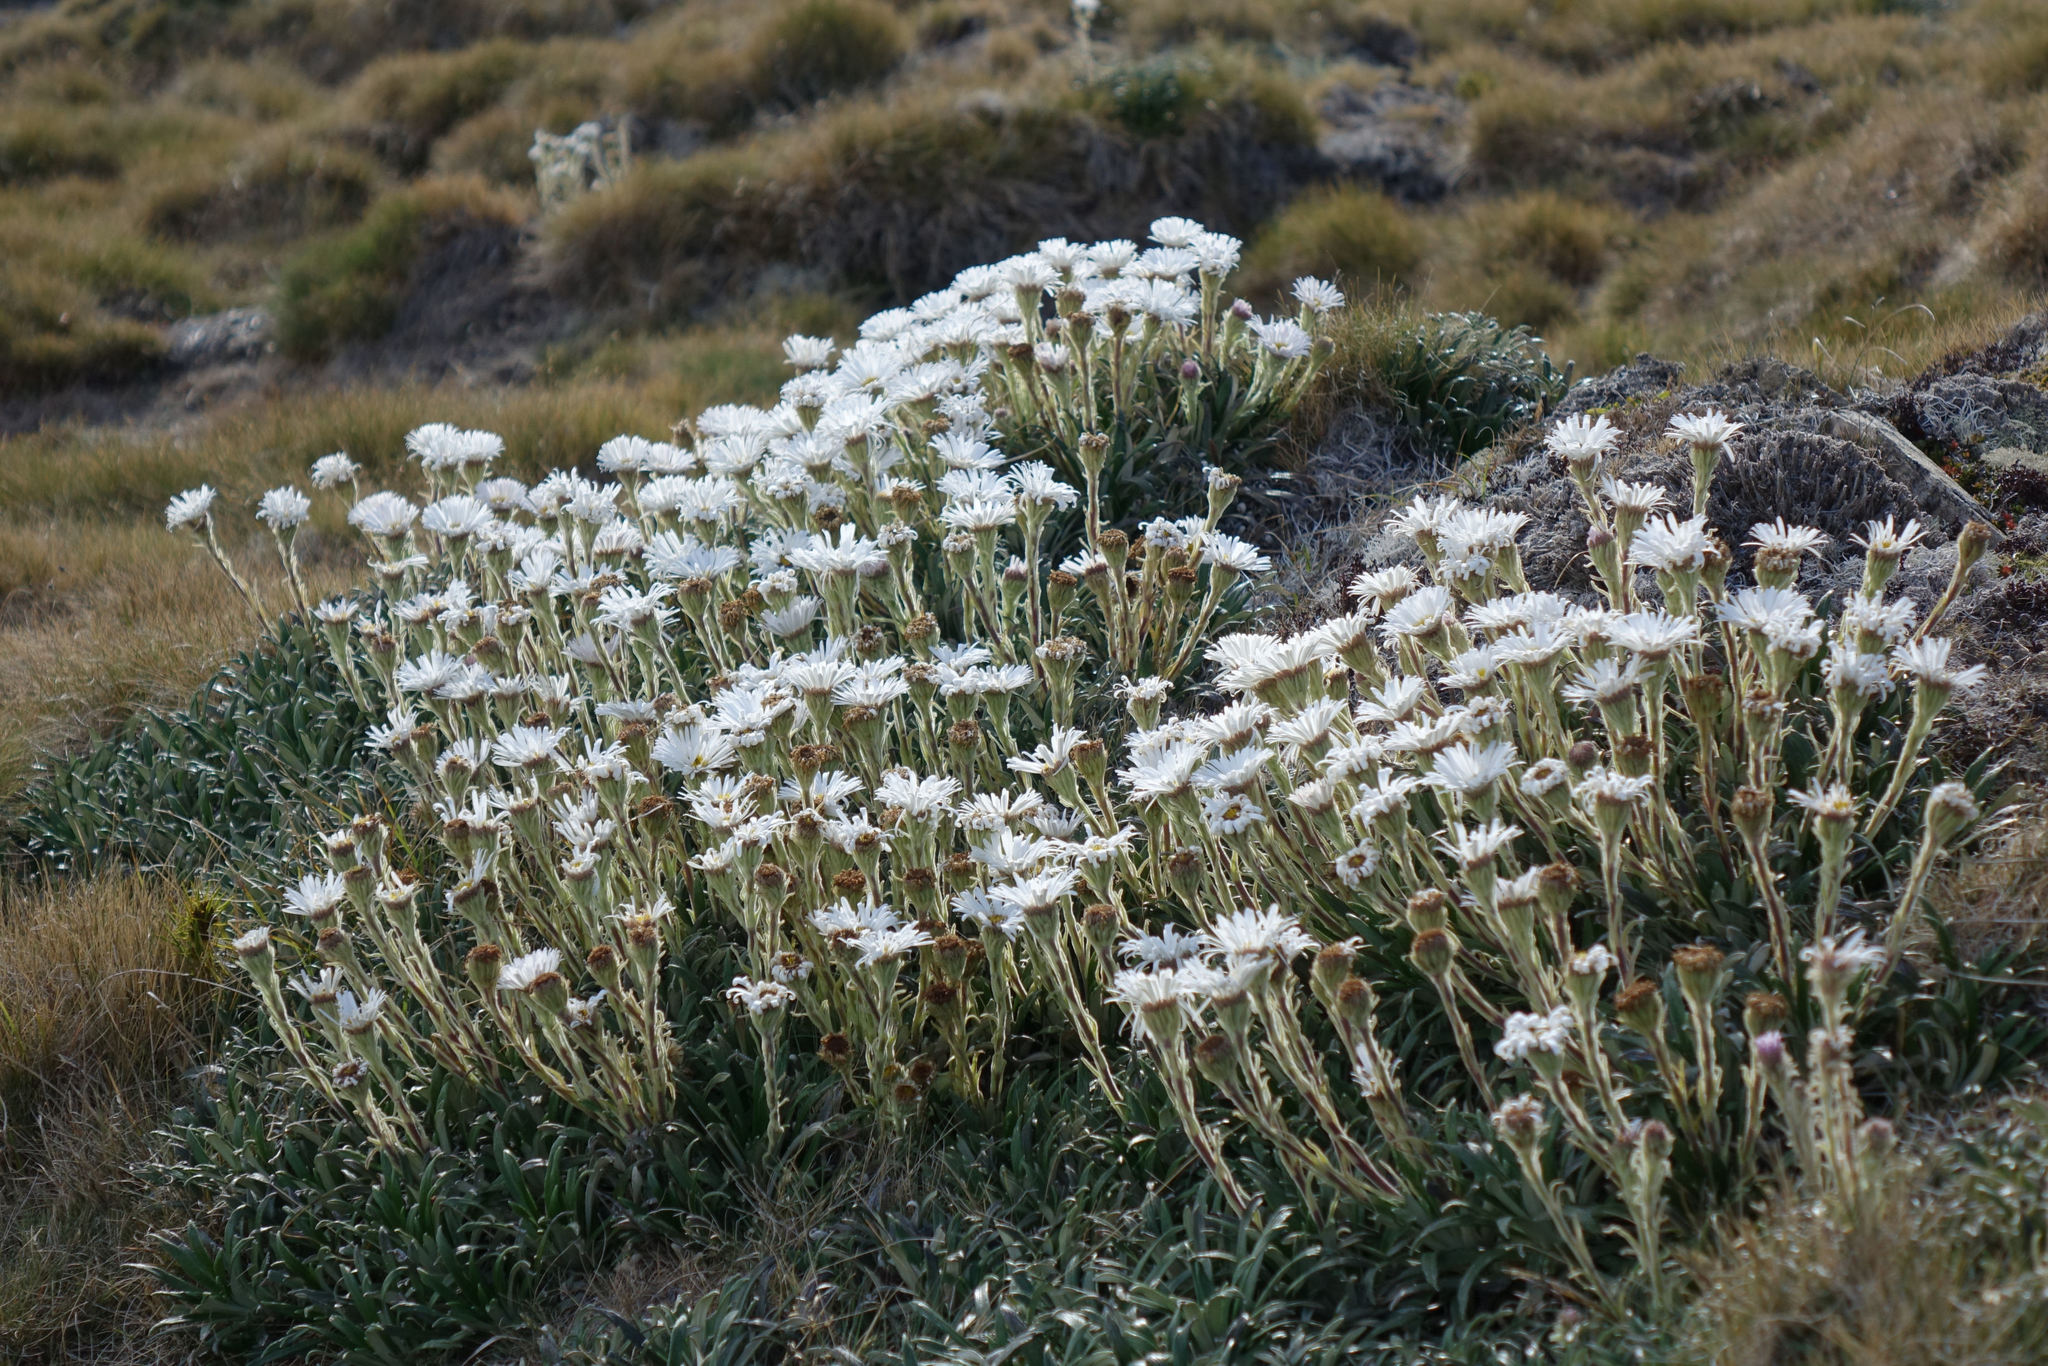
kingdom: Plantae
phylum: Tracheophyta
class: Magnoliopsida
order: Asterales
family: Asteraceae
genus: Celmisia
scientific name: Celmisia viscosa
